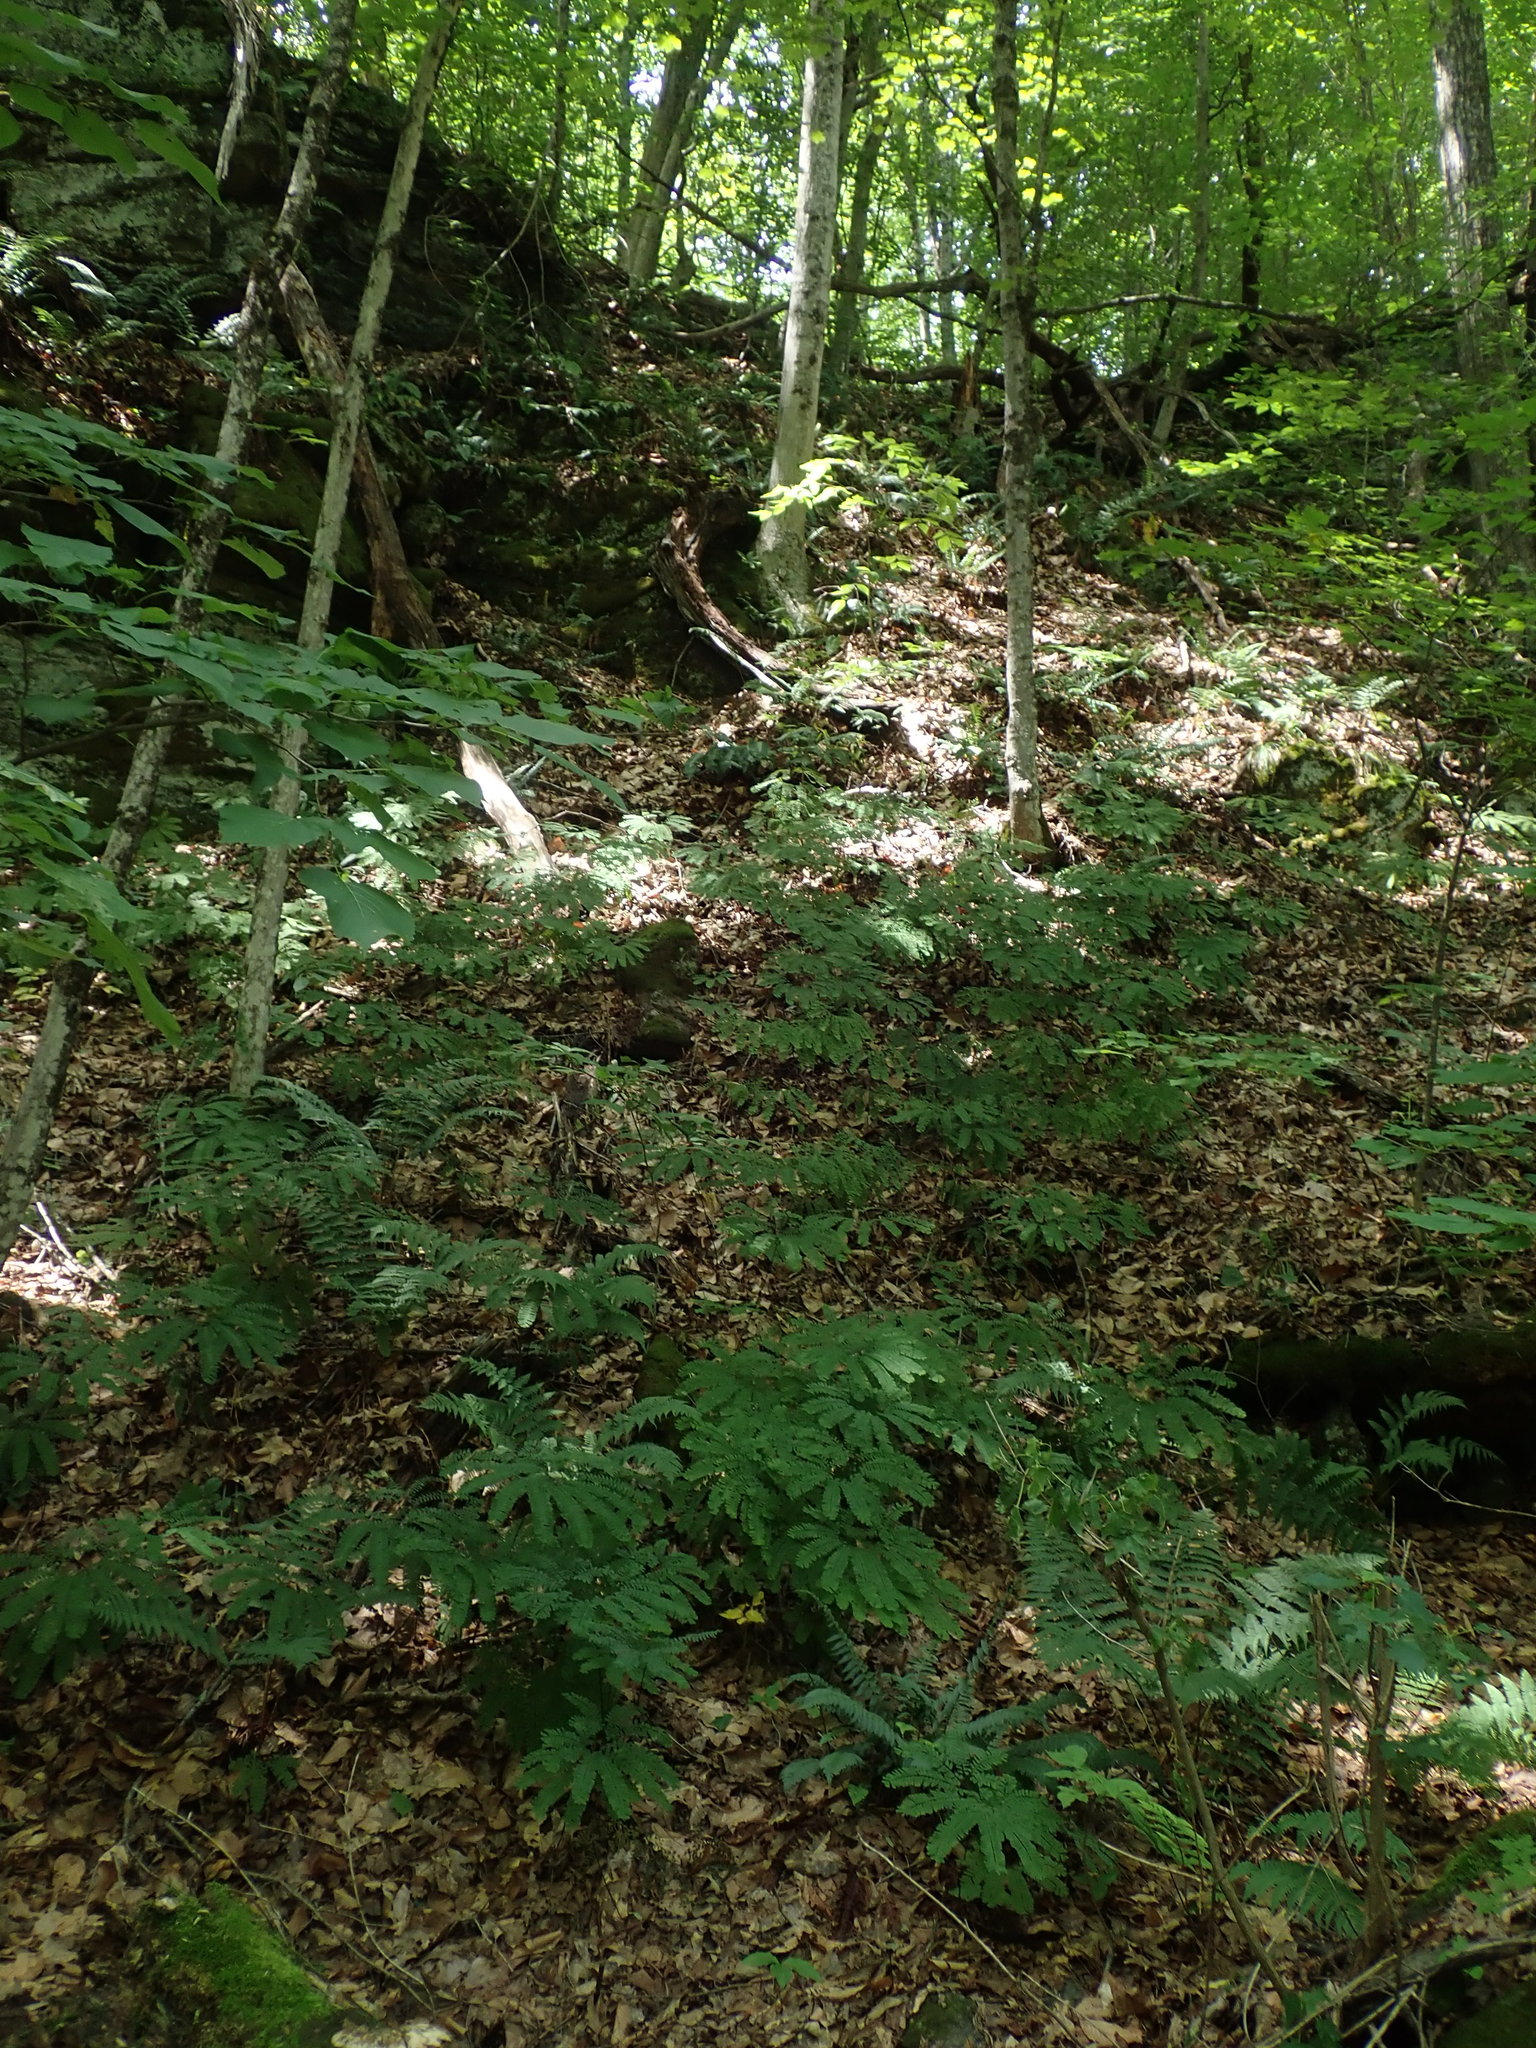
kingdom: Plantae
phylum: Tracheophyta
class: Polypodiopsida
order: Polypodiales
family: Pteridaceae
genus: Adiantum
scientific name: Adiantum pedatum
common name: Five-finger fern
